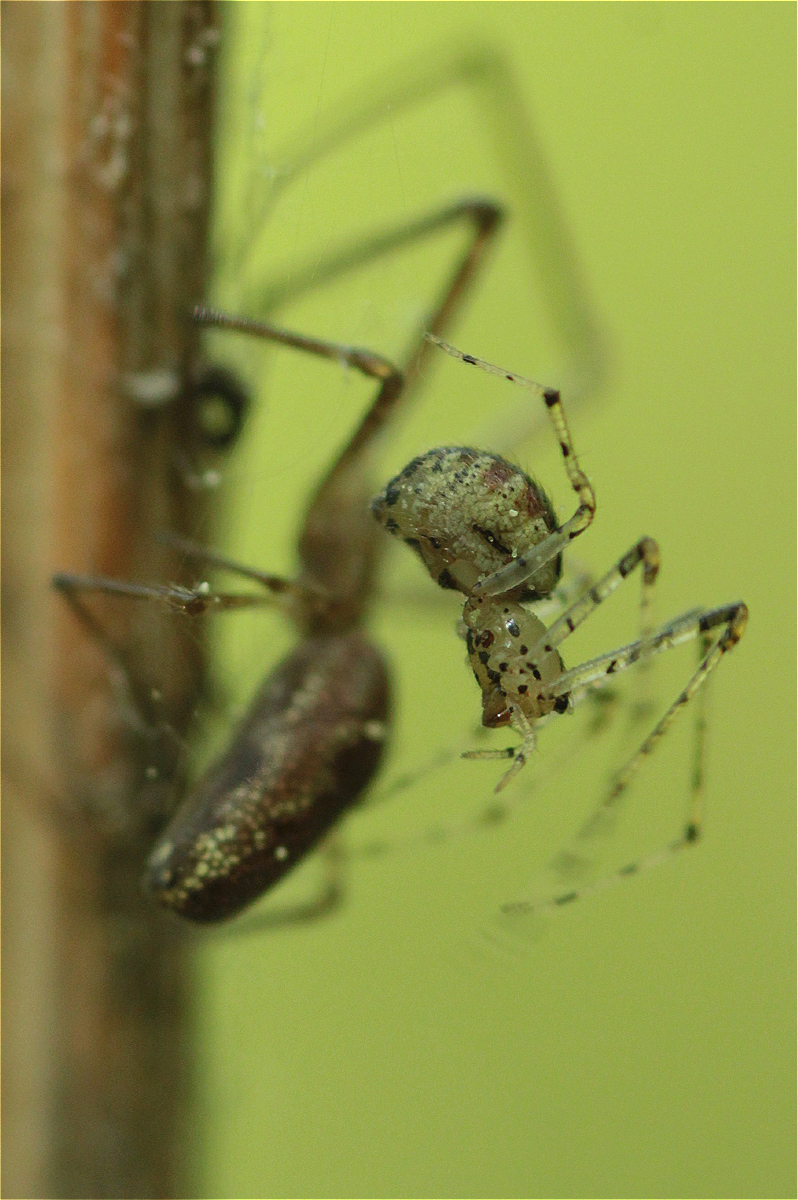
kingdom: Animalia
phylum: Arthropoda
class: Arachnida
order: Araneae
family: Theridiidae
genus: Platnickina
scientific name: Platnickina tincta
